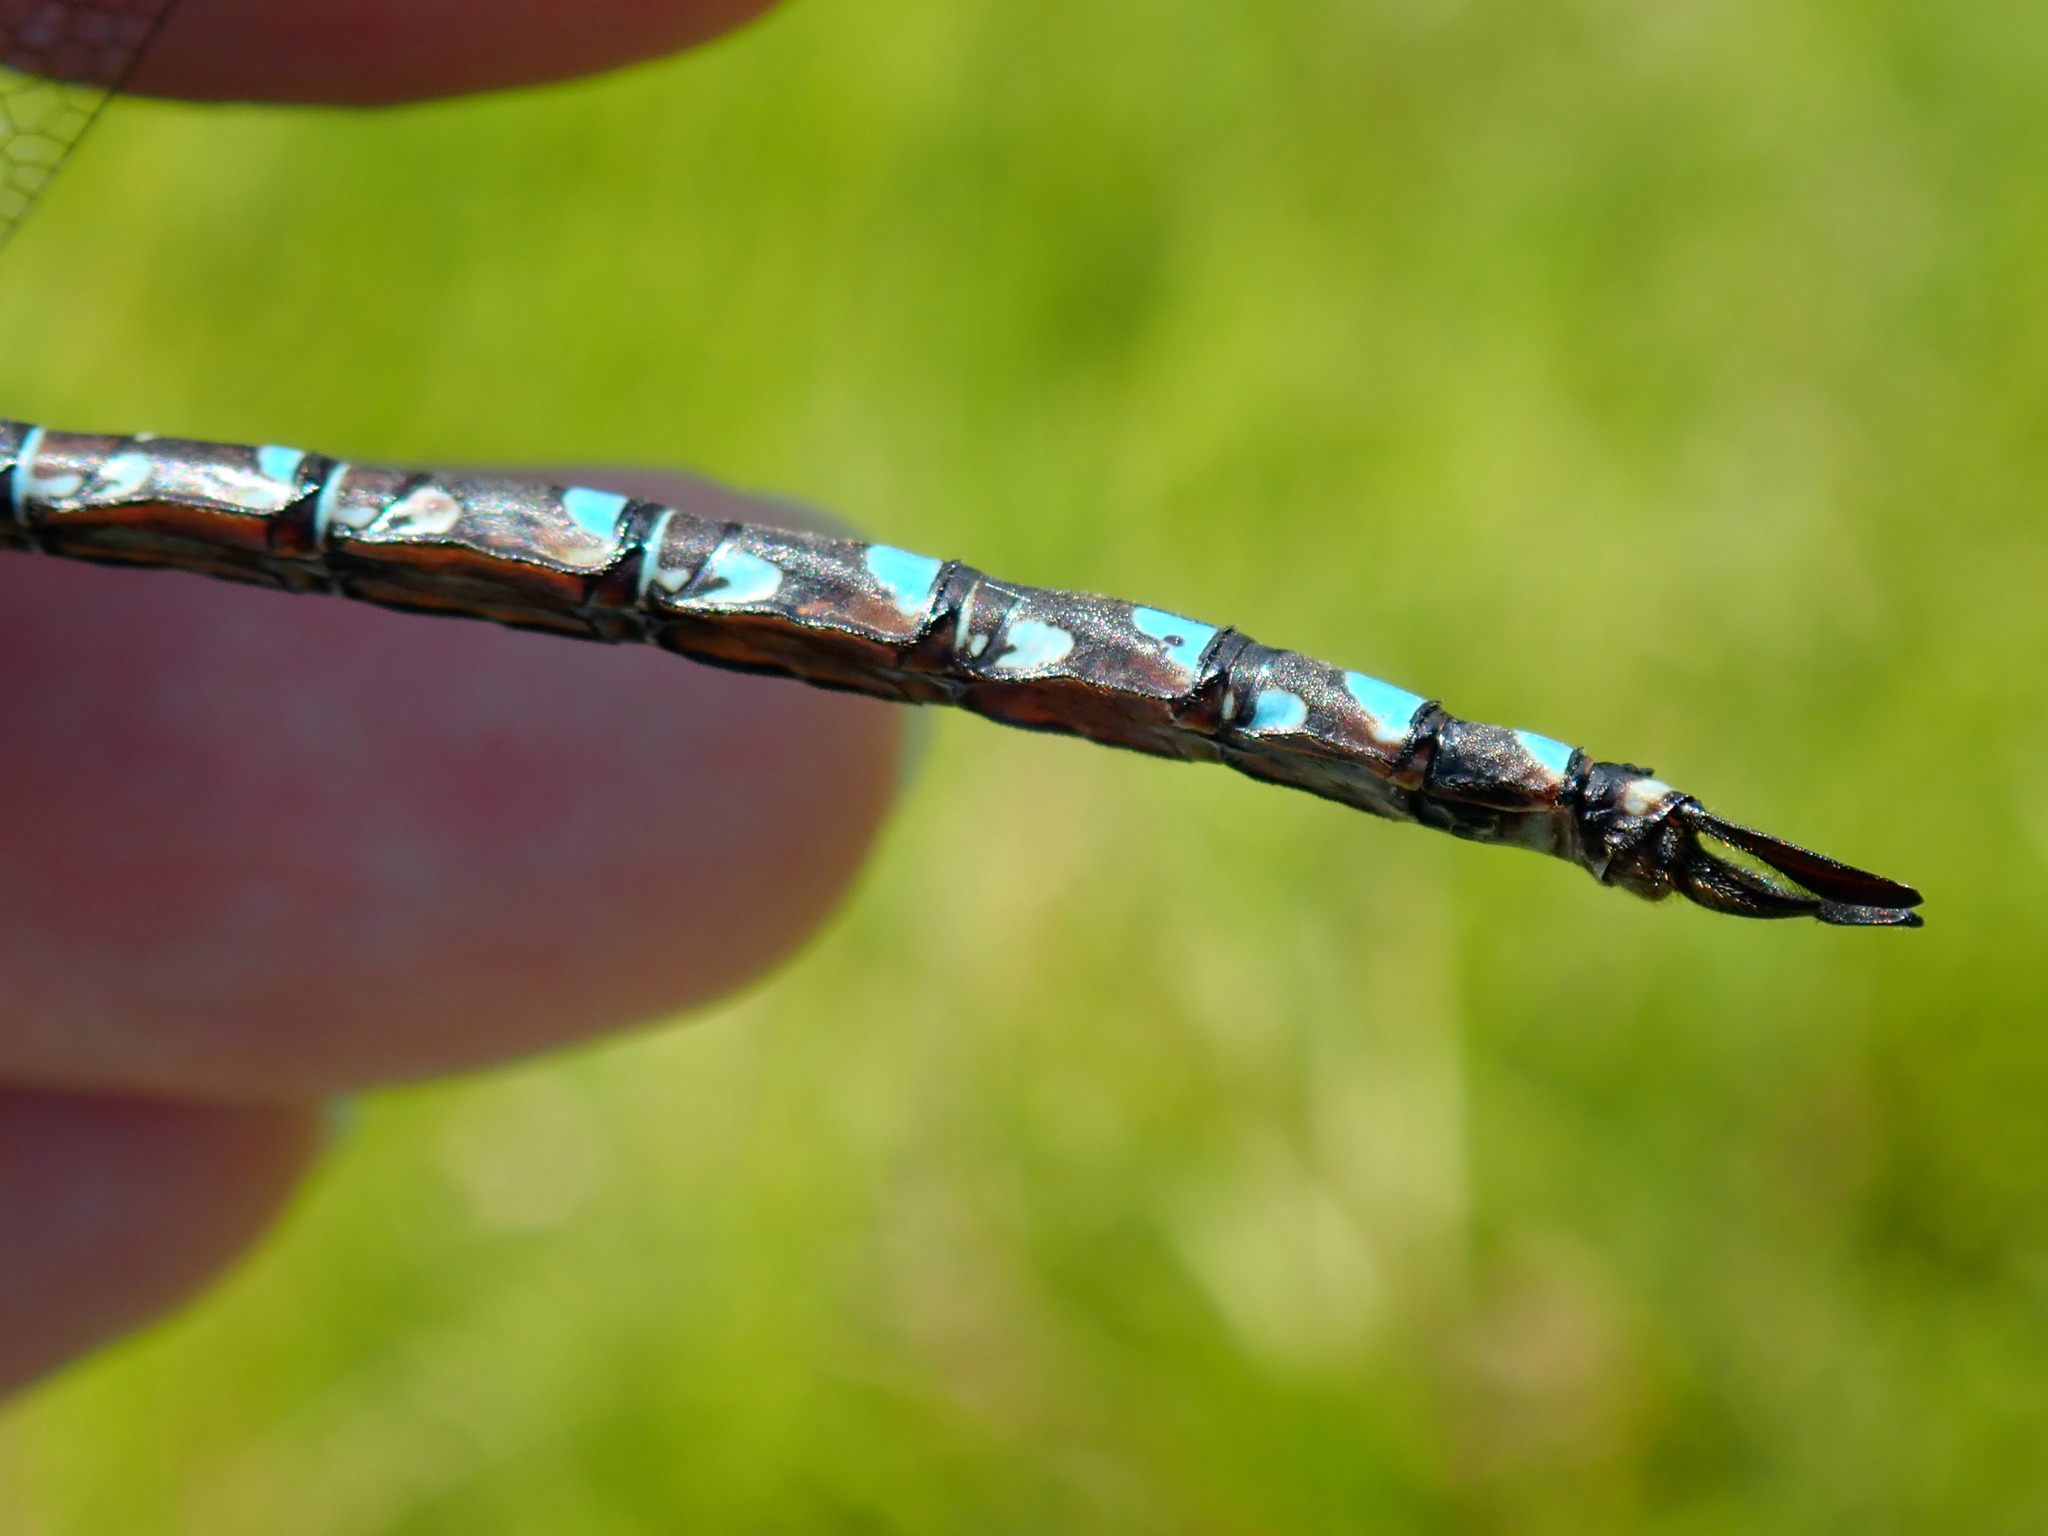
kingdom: Animalia
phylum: Arthropoda
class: Insecta
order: Odonata
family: Aeshnidae
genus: Aeshna
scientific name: Aeshna interrupta
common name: Variable darner
